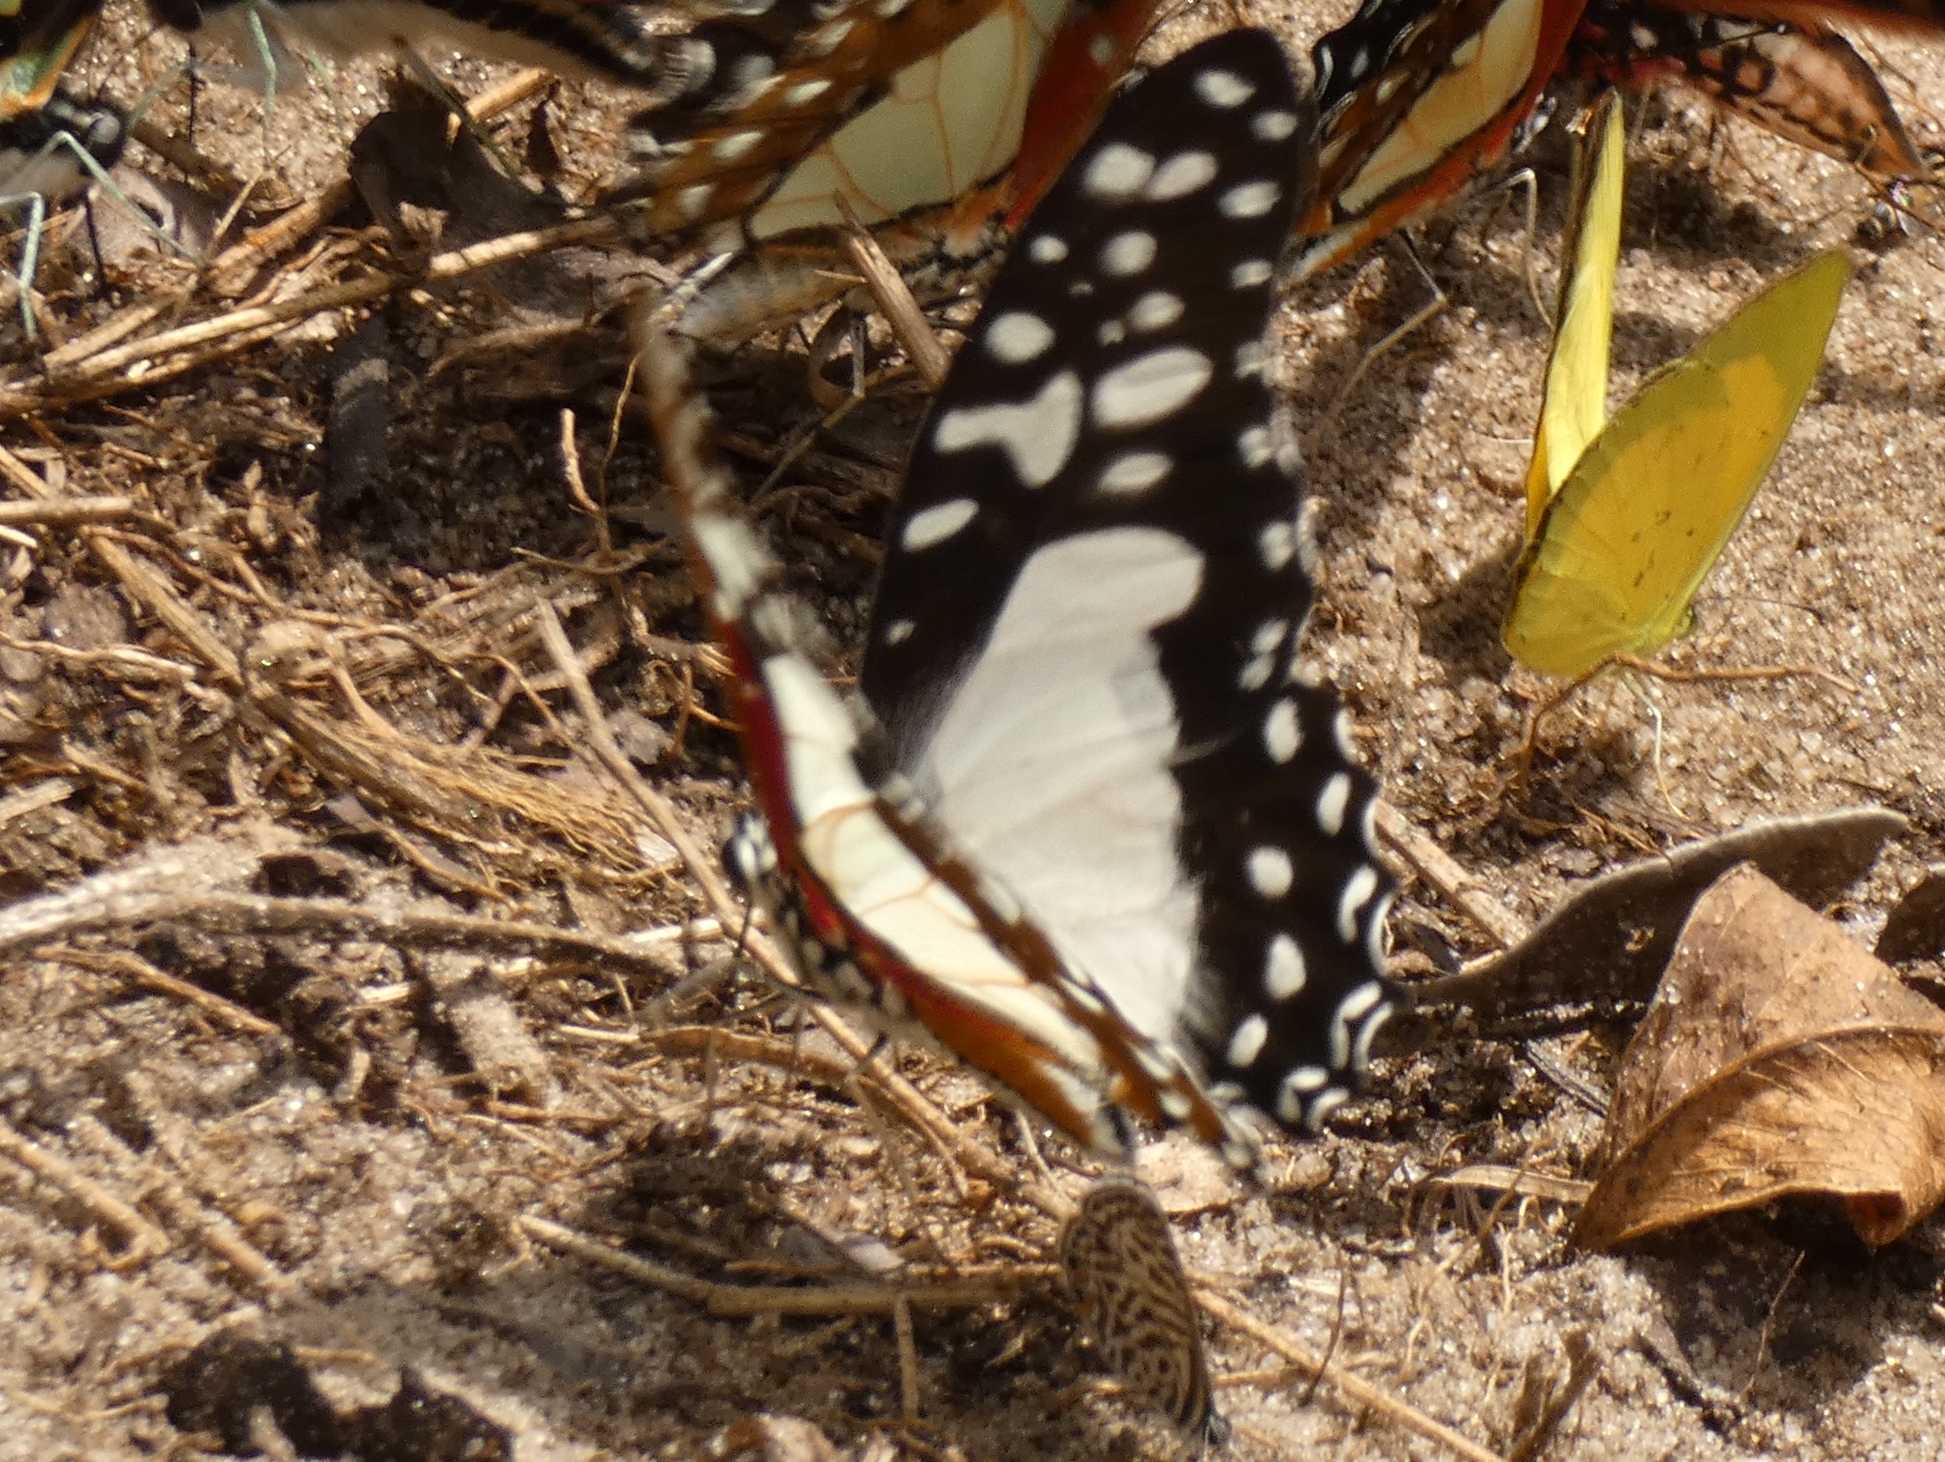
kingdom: Animalia
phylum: Arthropoda
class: Insecta
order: Lepidoptera
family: Papilionidae
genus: Graphium
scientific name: Graphium angolanus
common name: Angola white-lady swordtail
